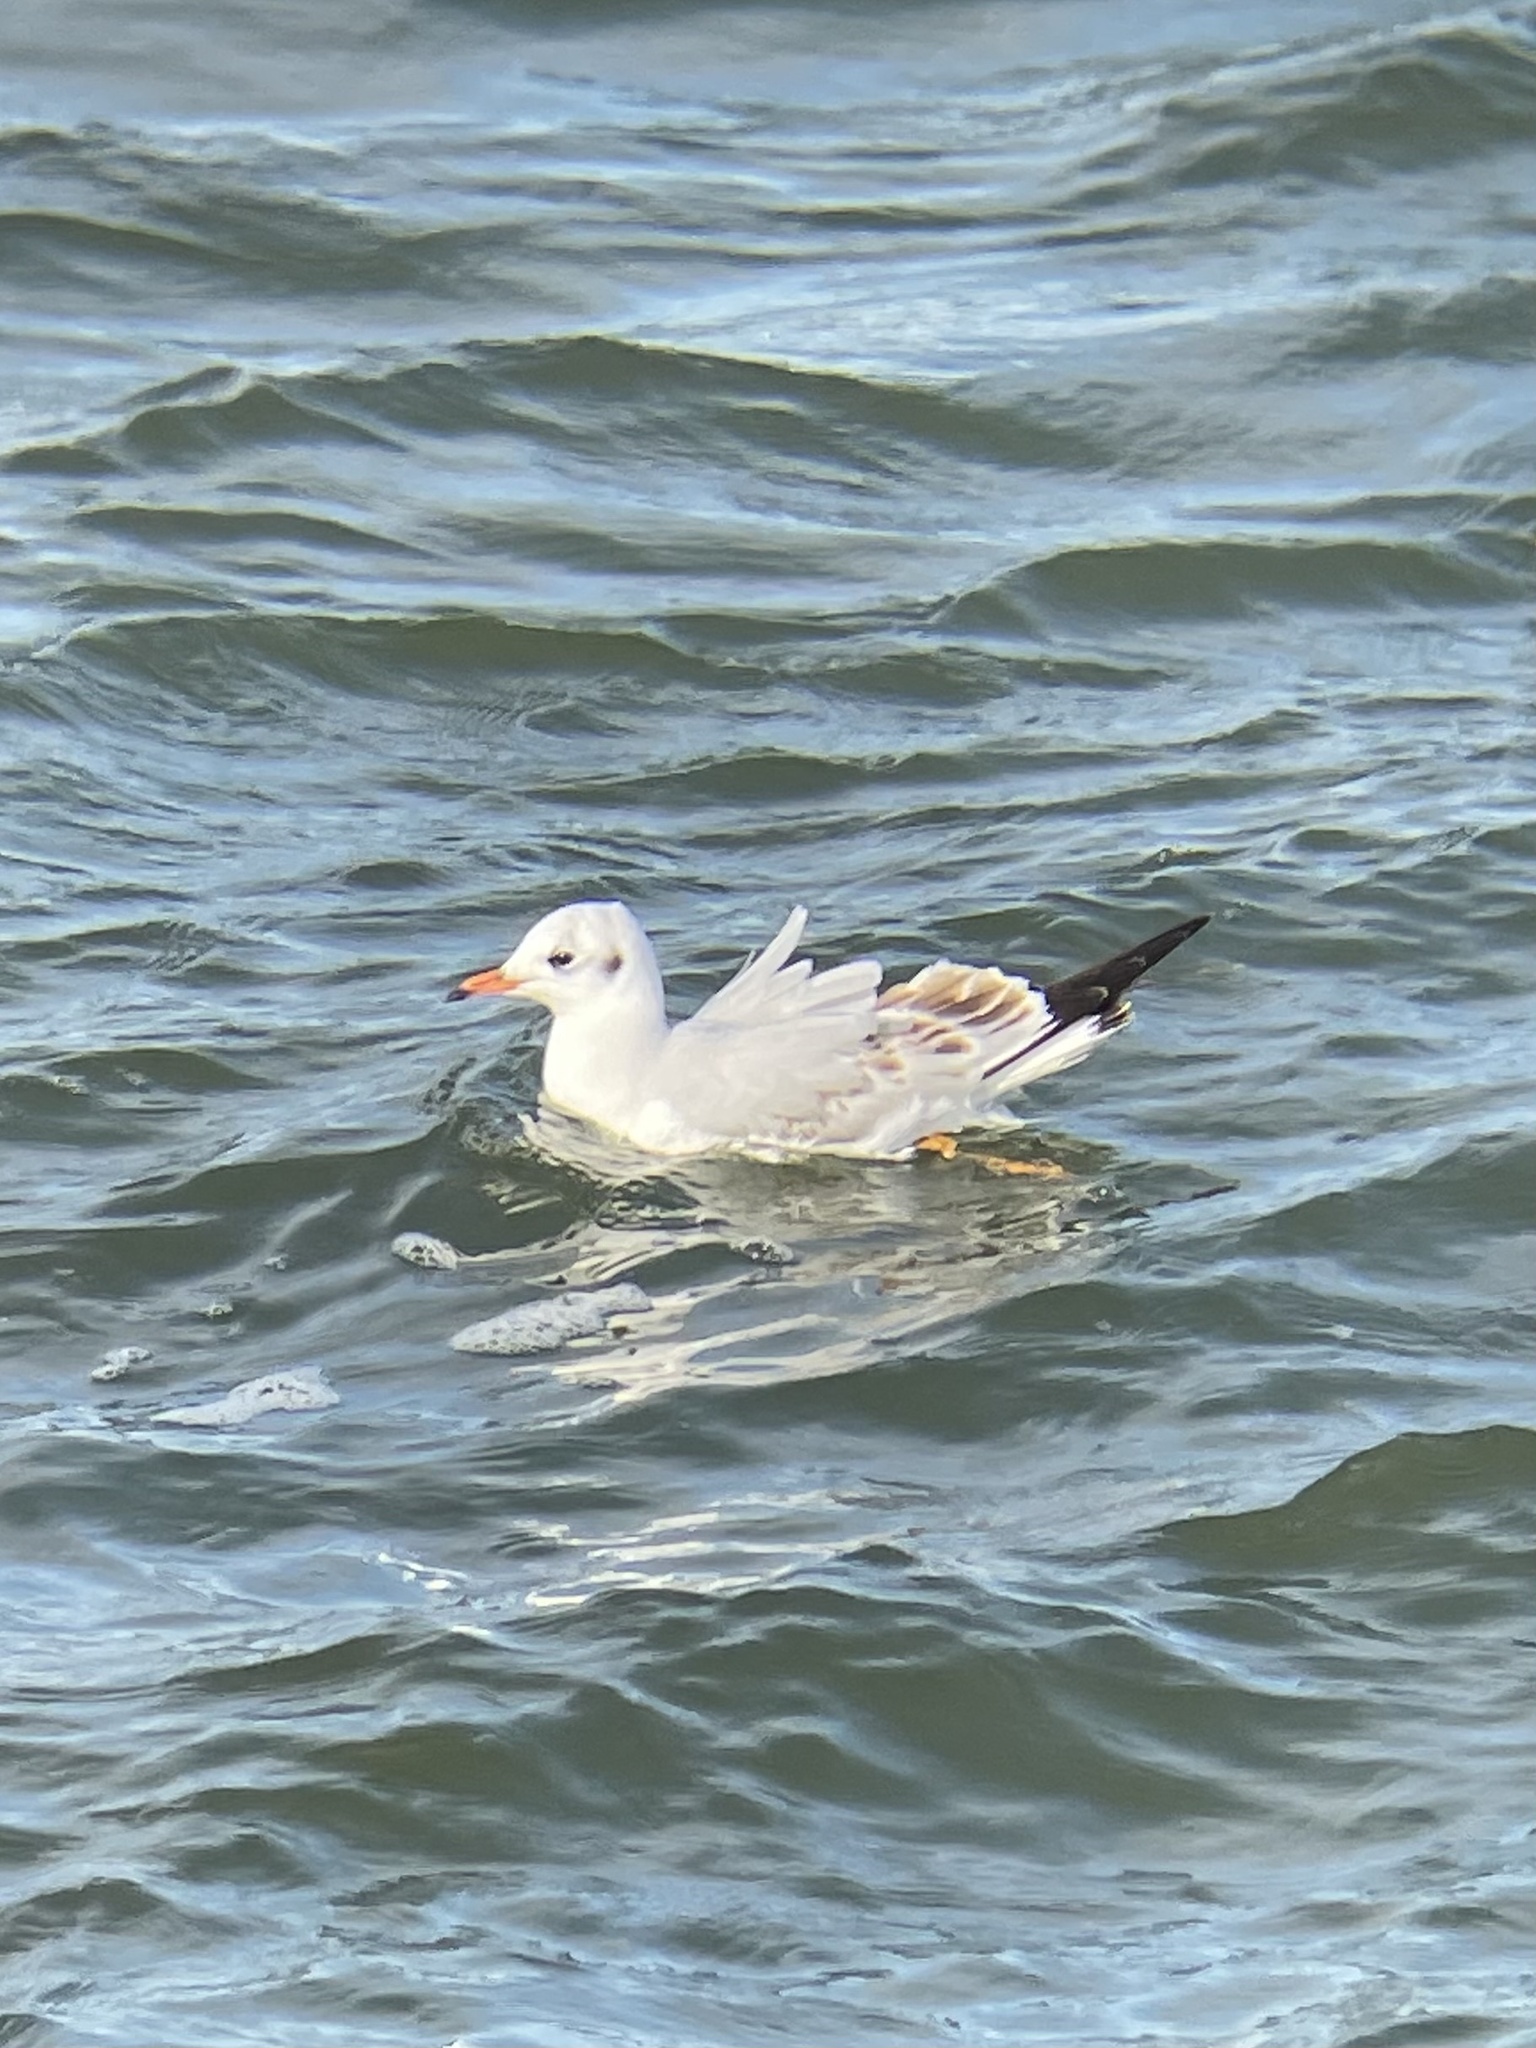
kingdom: Animalia
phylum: Chordata
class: Aves
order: Charadriiformes
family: Laridae
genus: Chroicocephalus
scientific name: Chroicocephalus ridibundus
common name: Black-headed gull
